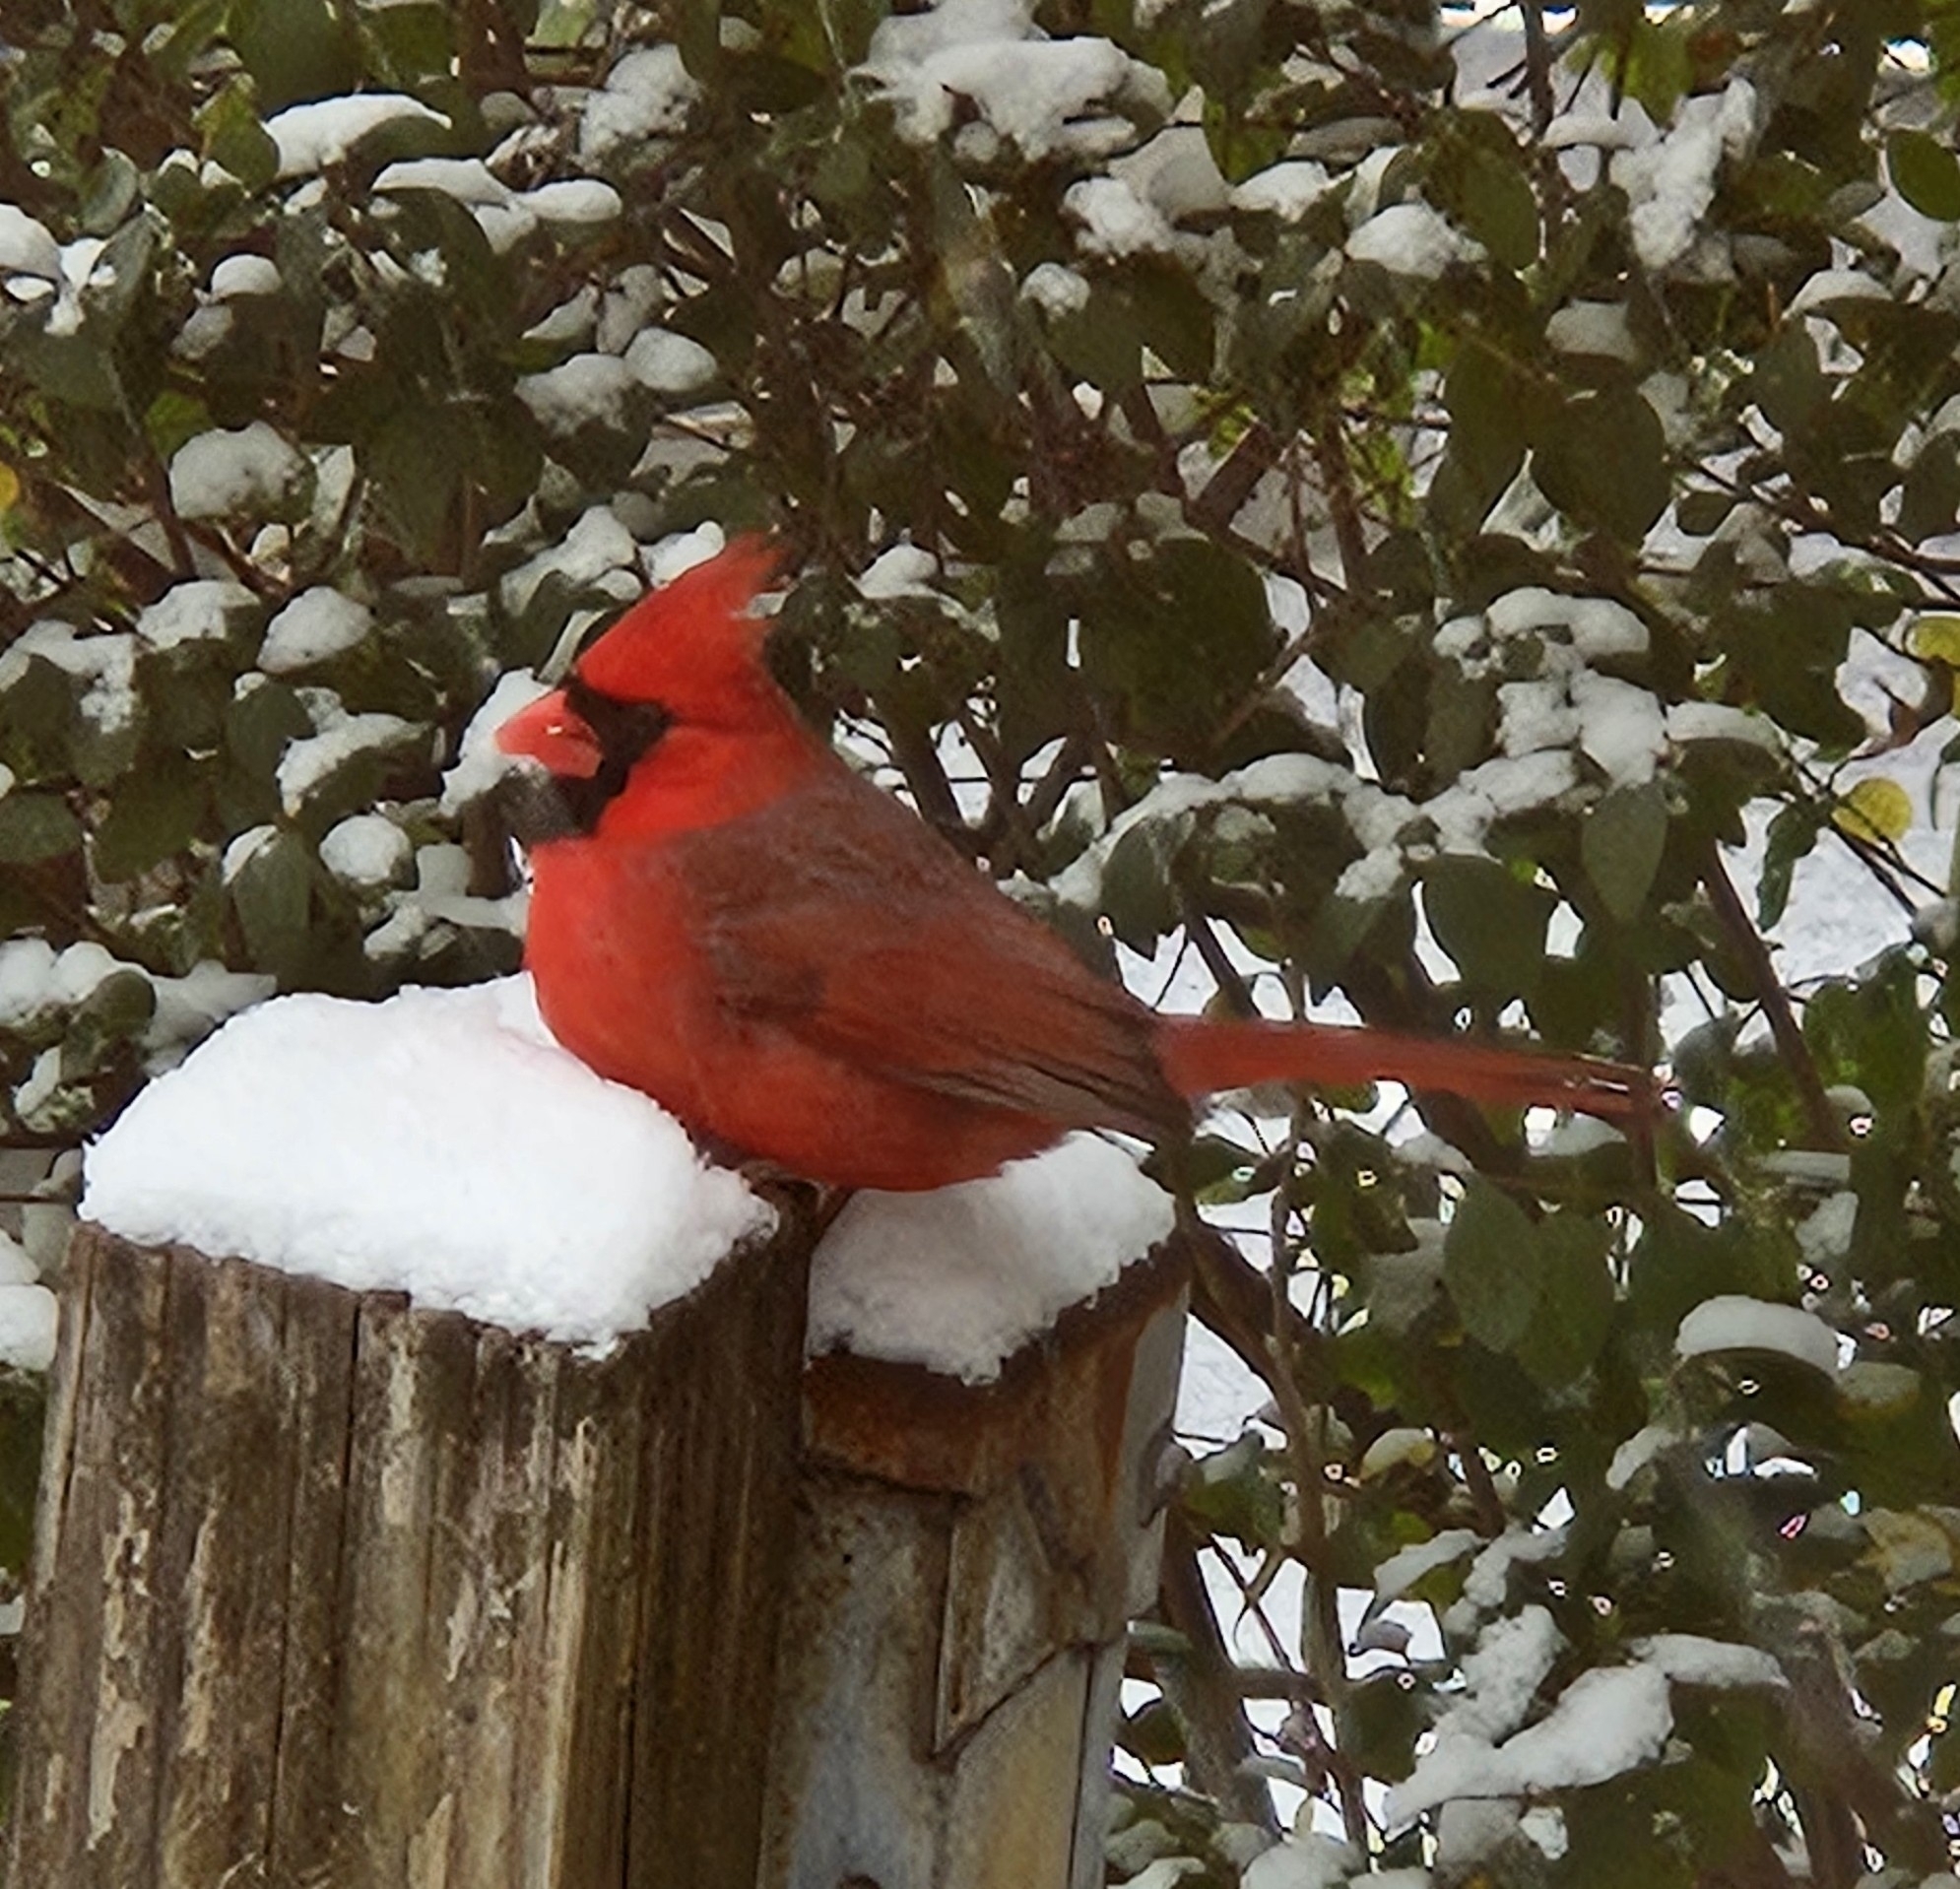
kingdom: Animalia
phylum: Chordata
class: Aves
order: Passeriformes
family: Cardinalidae
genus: Cardinalis
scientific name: Cardinalis cardinalis
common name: Northern cardinal
